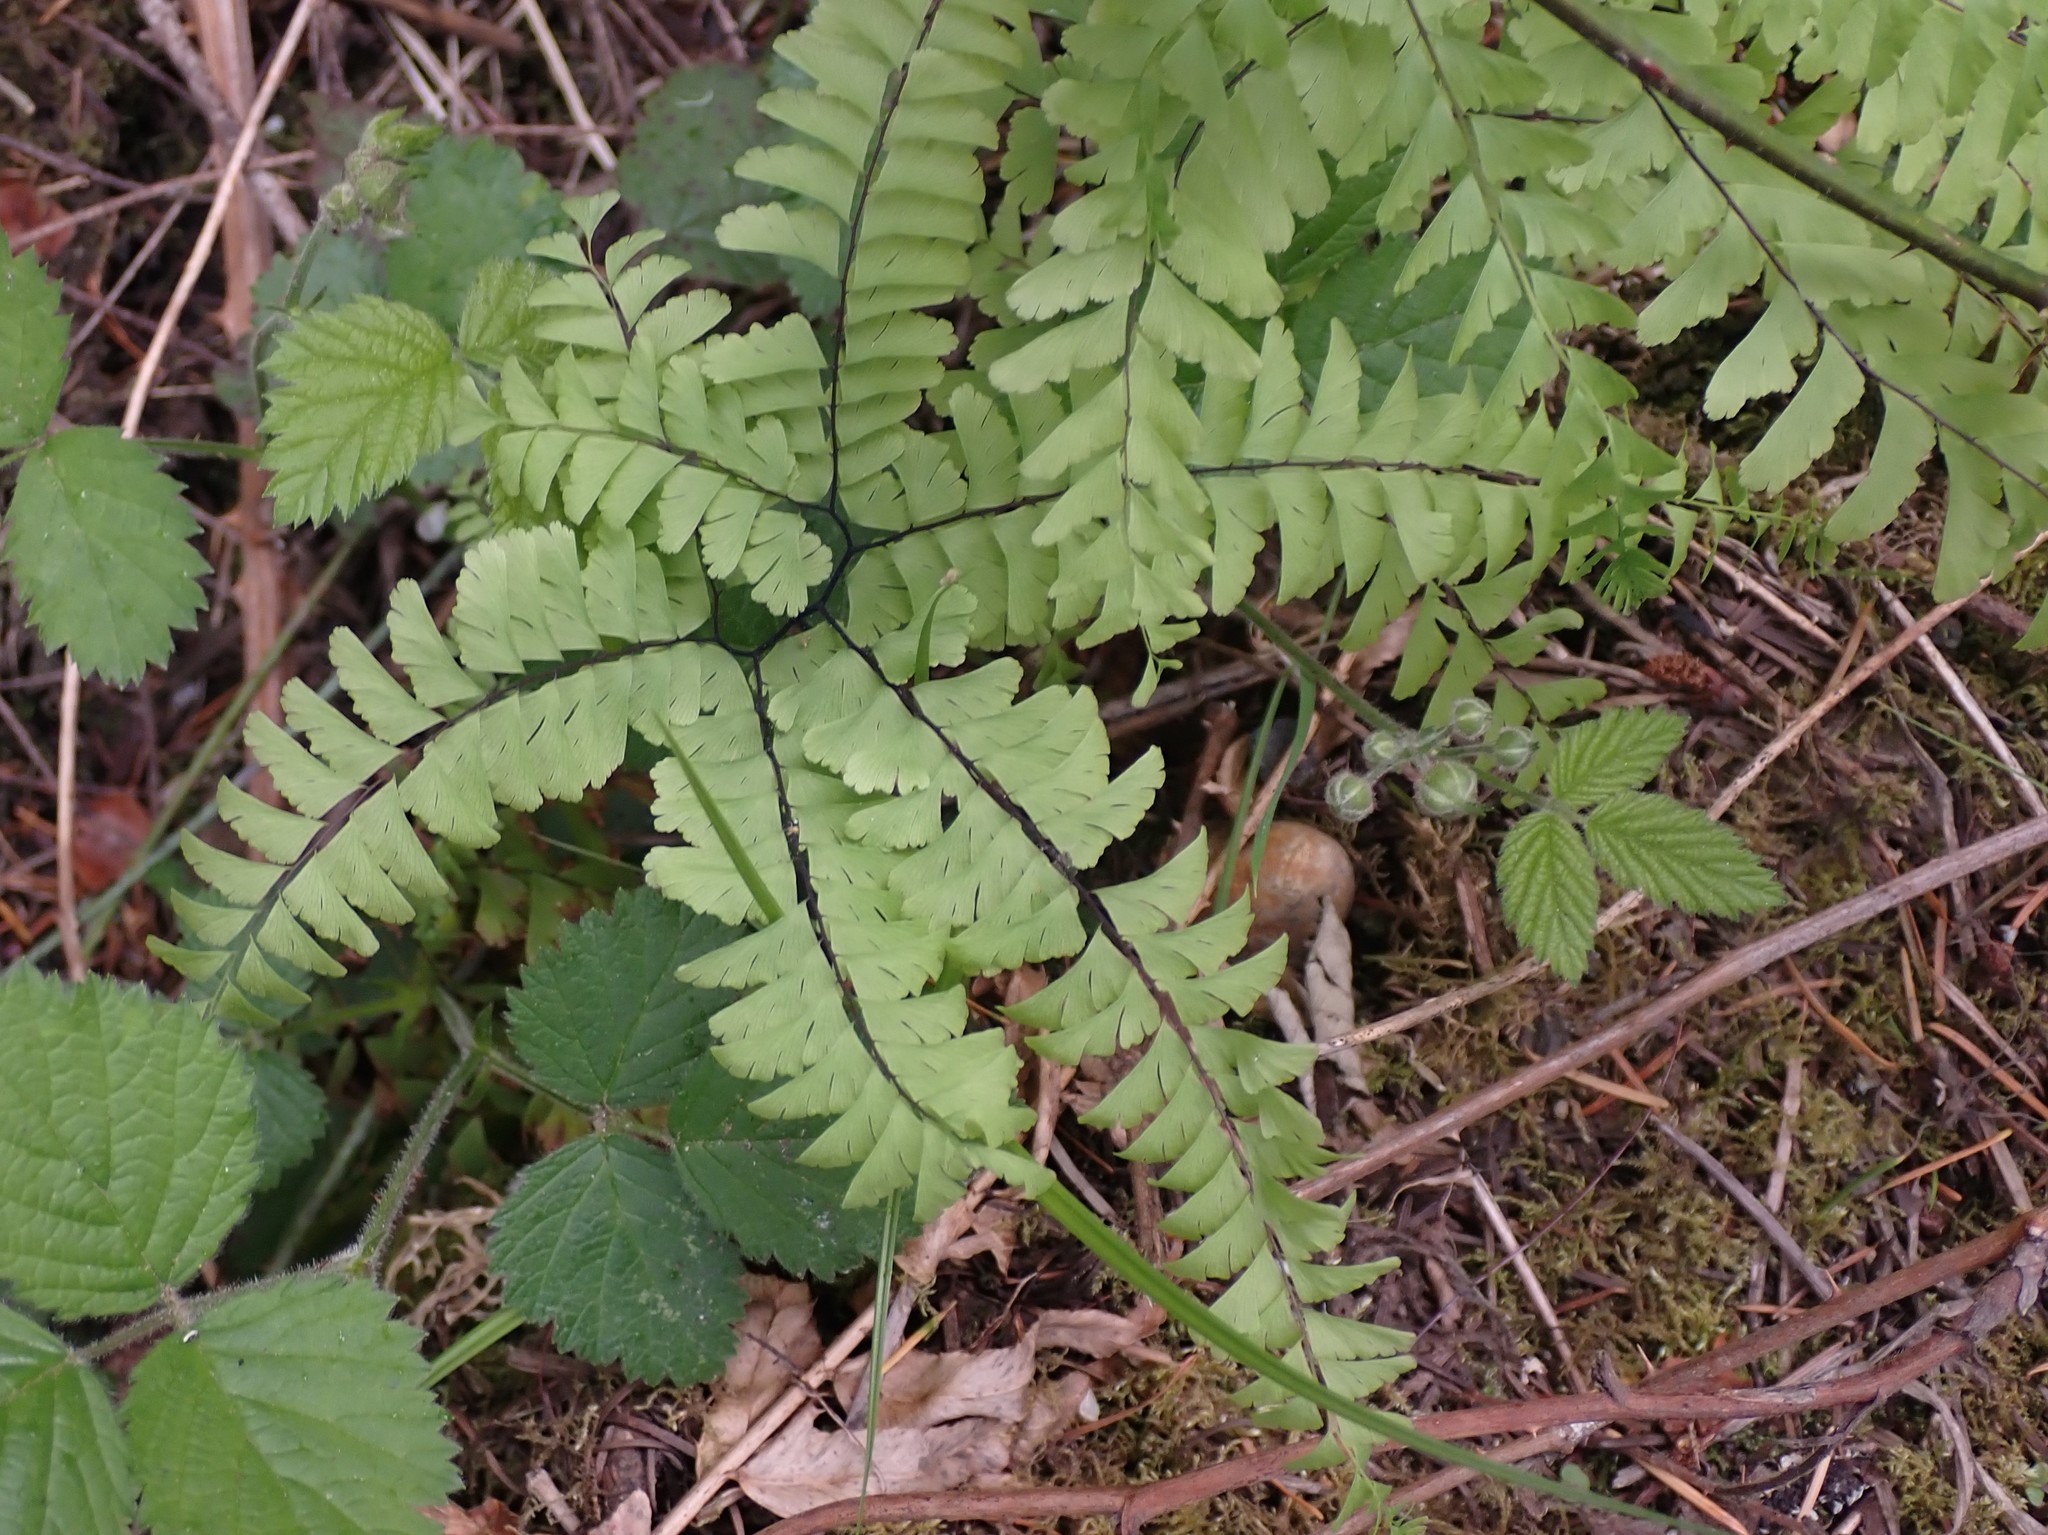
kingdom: Plantae
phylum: Tracheophyta
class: Polypodiopsida
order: Polypodiales
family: Pteridaceae
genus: Adiantum
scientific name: Adiantum aleuticum
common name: Aleutian maidenhair fern
